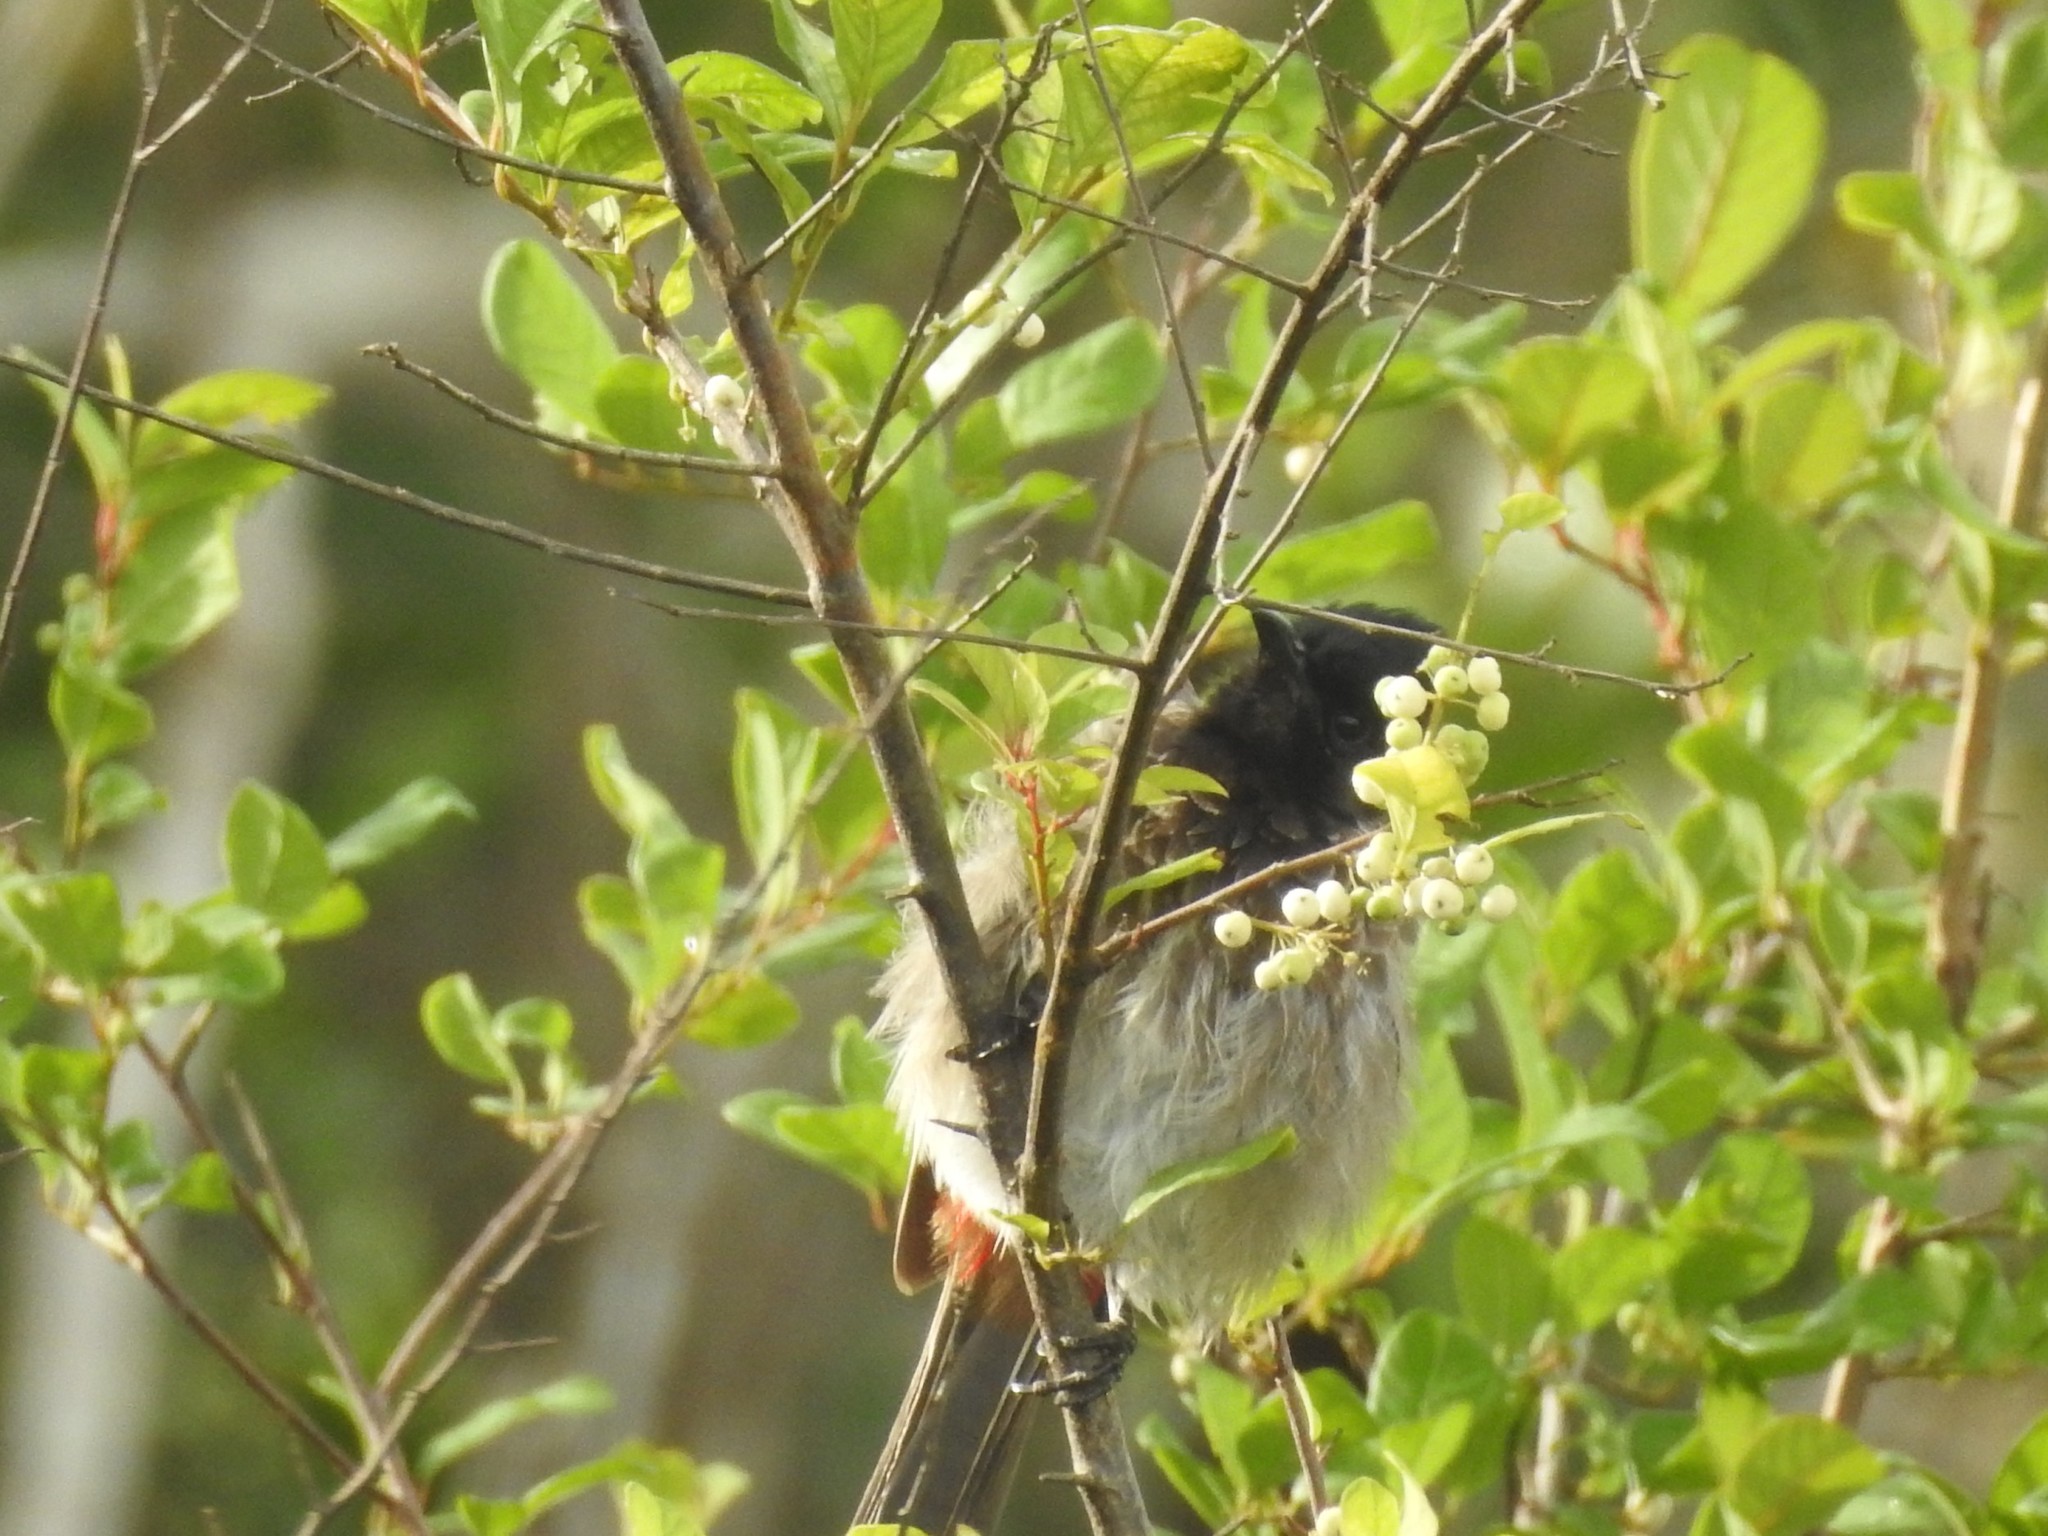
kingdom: Animalia
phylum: Chordata
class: Aves
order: Passeriformes
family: Pycnonotidae
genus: Pycnonotus
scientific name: Pycnonotus cafer
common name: Red-vented bulbul
